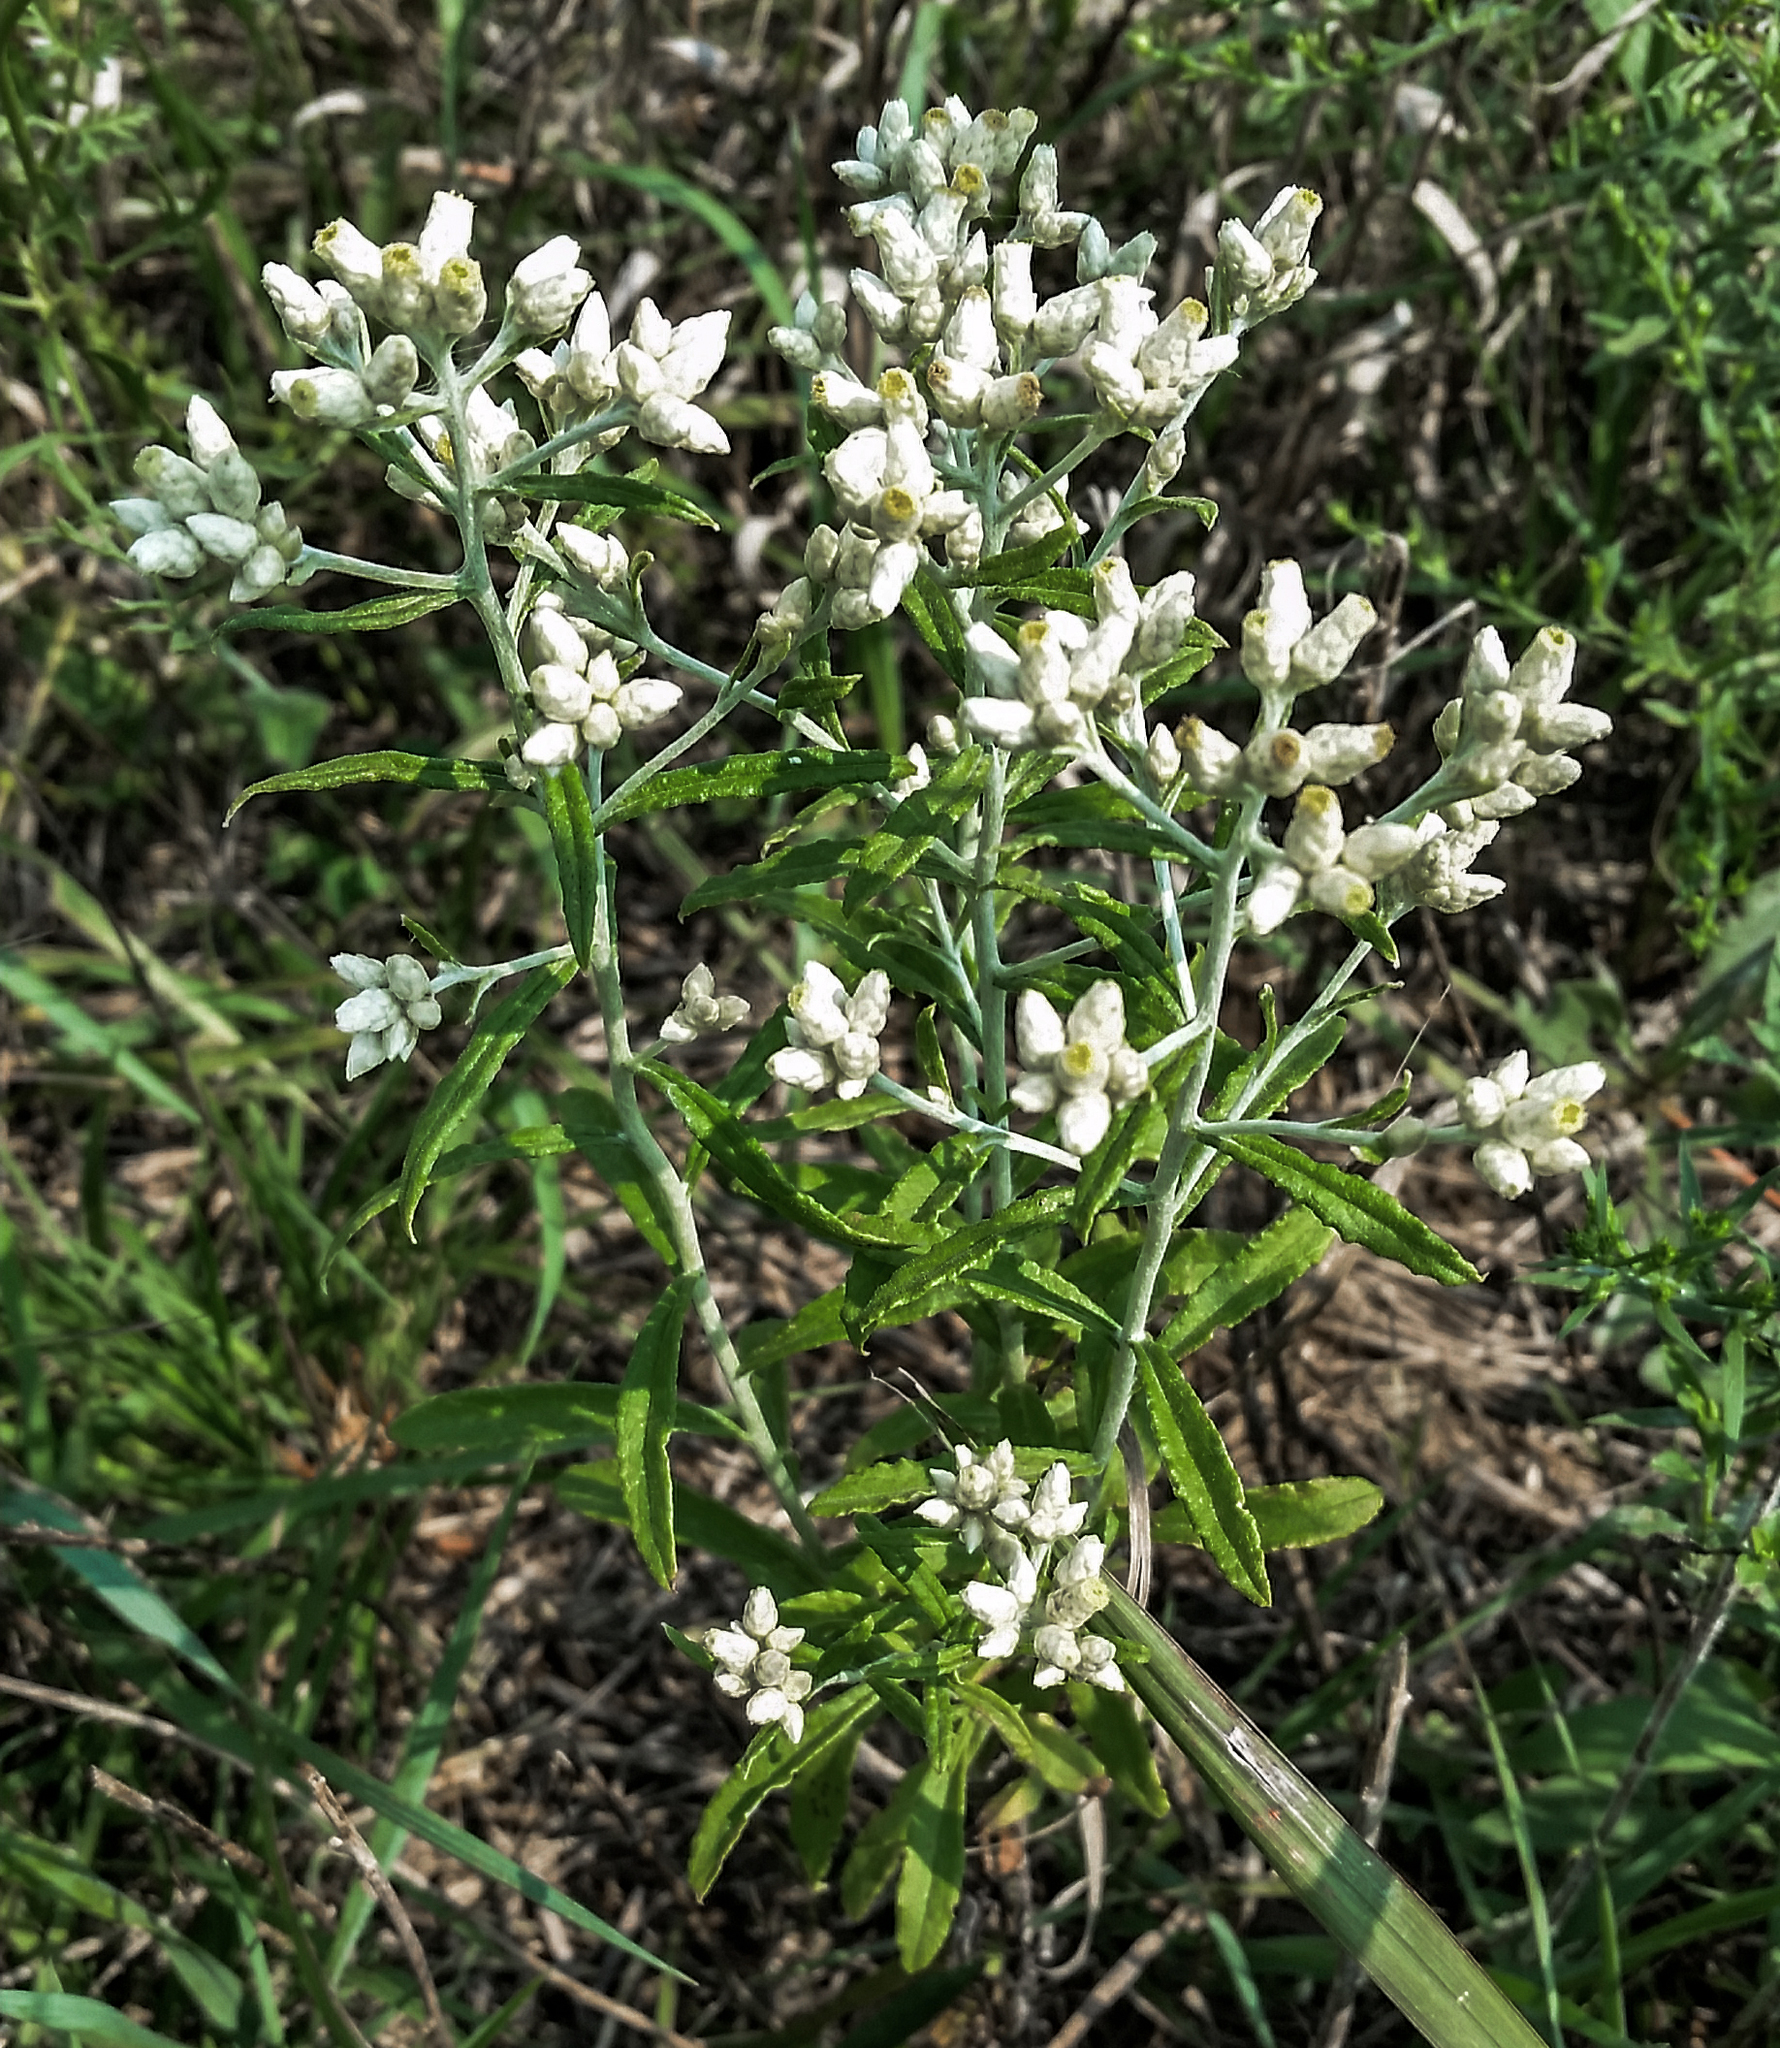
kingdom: Plantae
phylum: Tracheophyta
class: Magnoliopsida
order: Asterales
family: Asteraceae
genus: Pseudognaphalium
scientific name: Pseudognaphalium obtusifolium
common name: Eastern rabbit-tobacco
